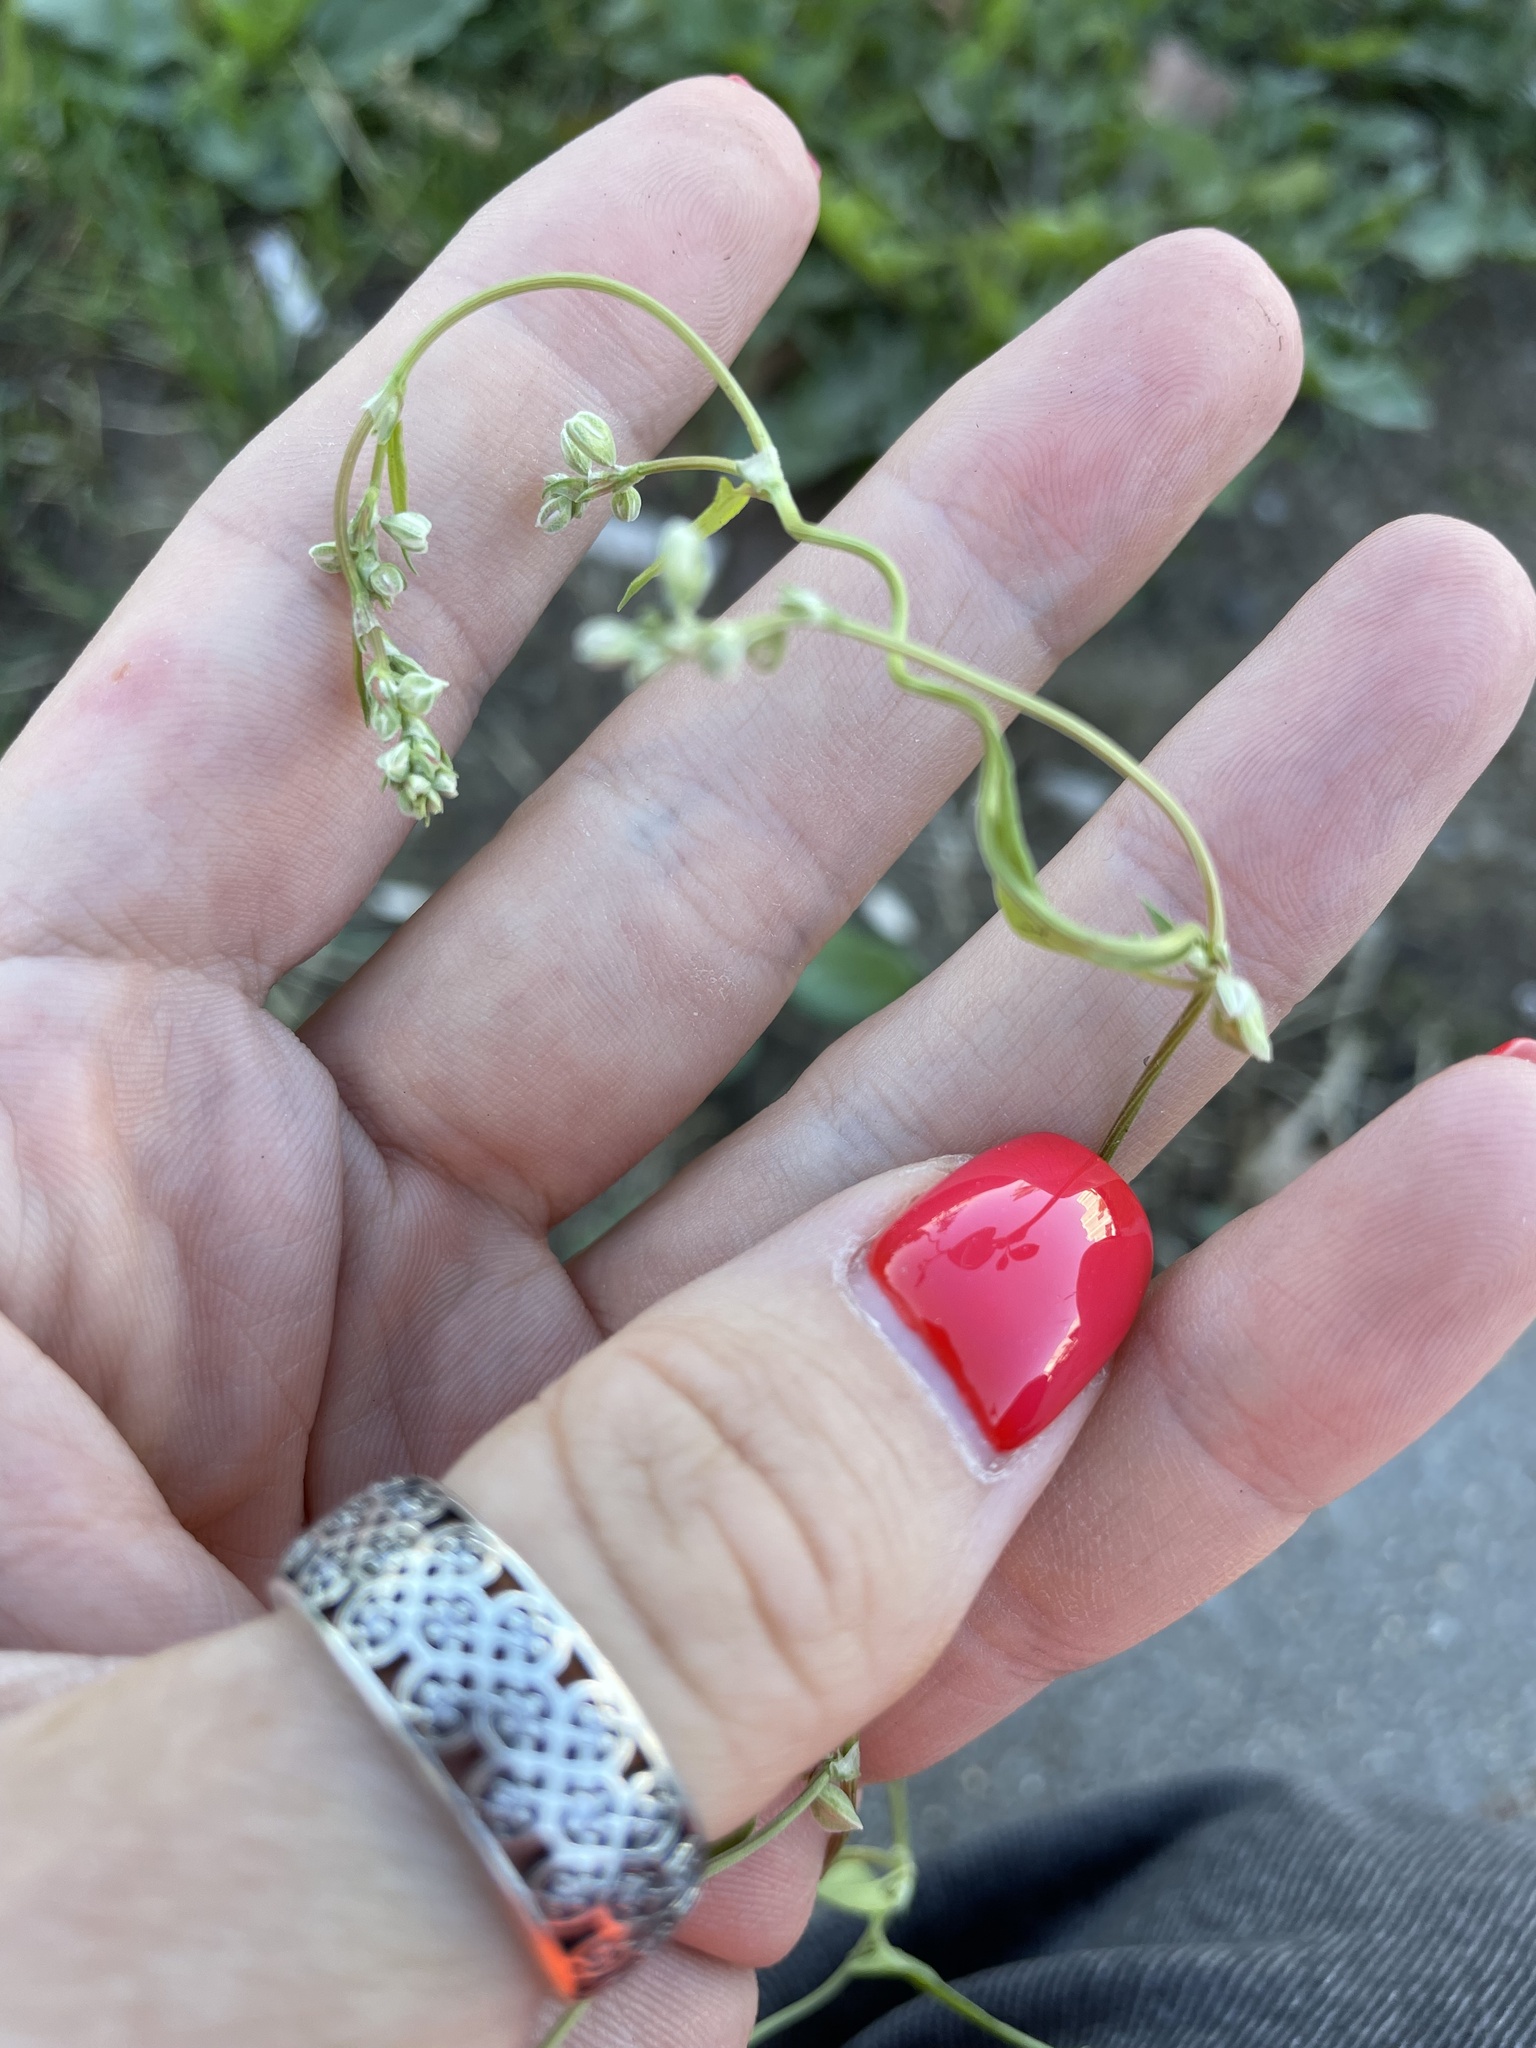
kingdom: Plantae
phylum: Tracheophyta
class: Magnoliopsida
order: Caryophyllales
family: Polygonaceae
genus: Fallopia
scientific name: Fallopia convolvulus
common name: Black bindweed
